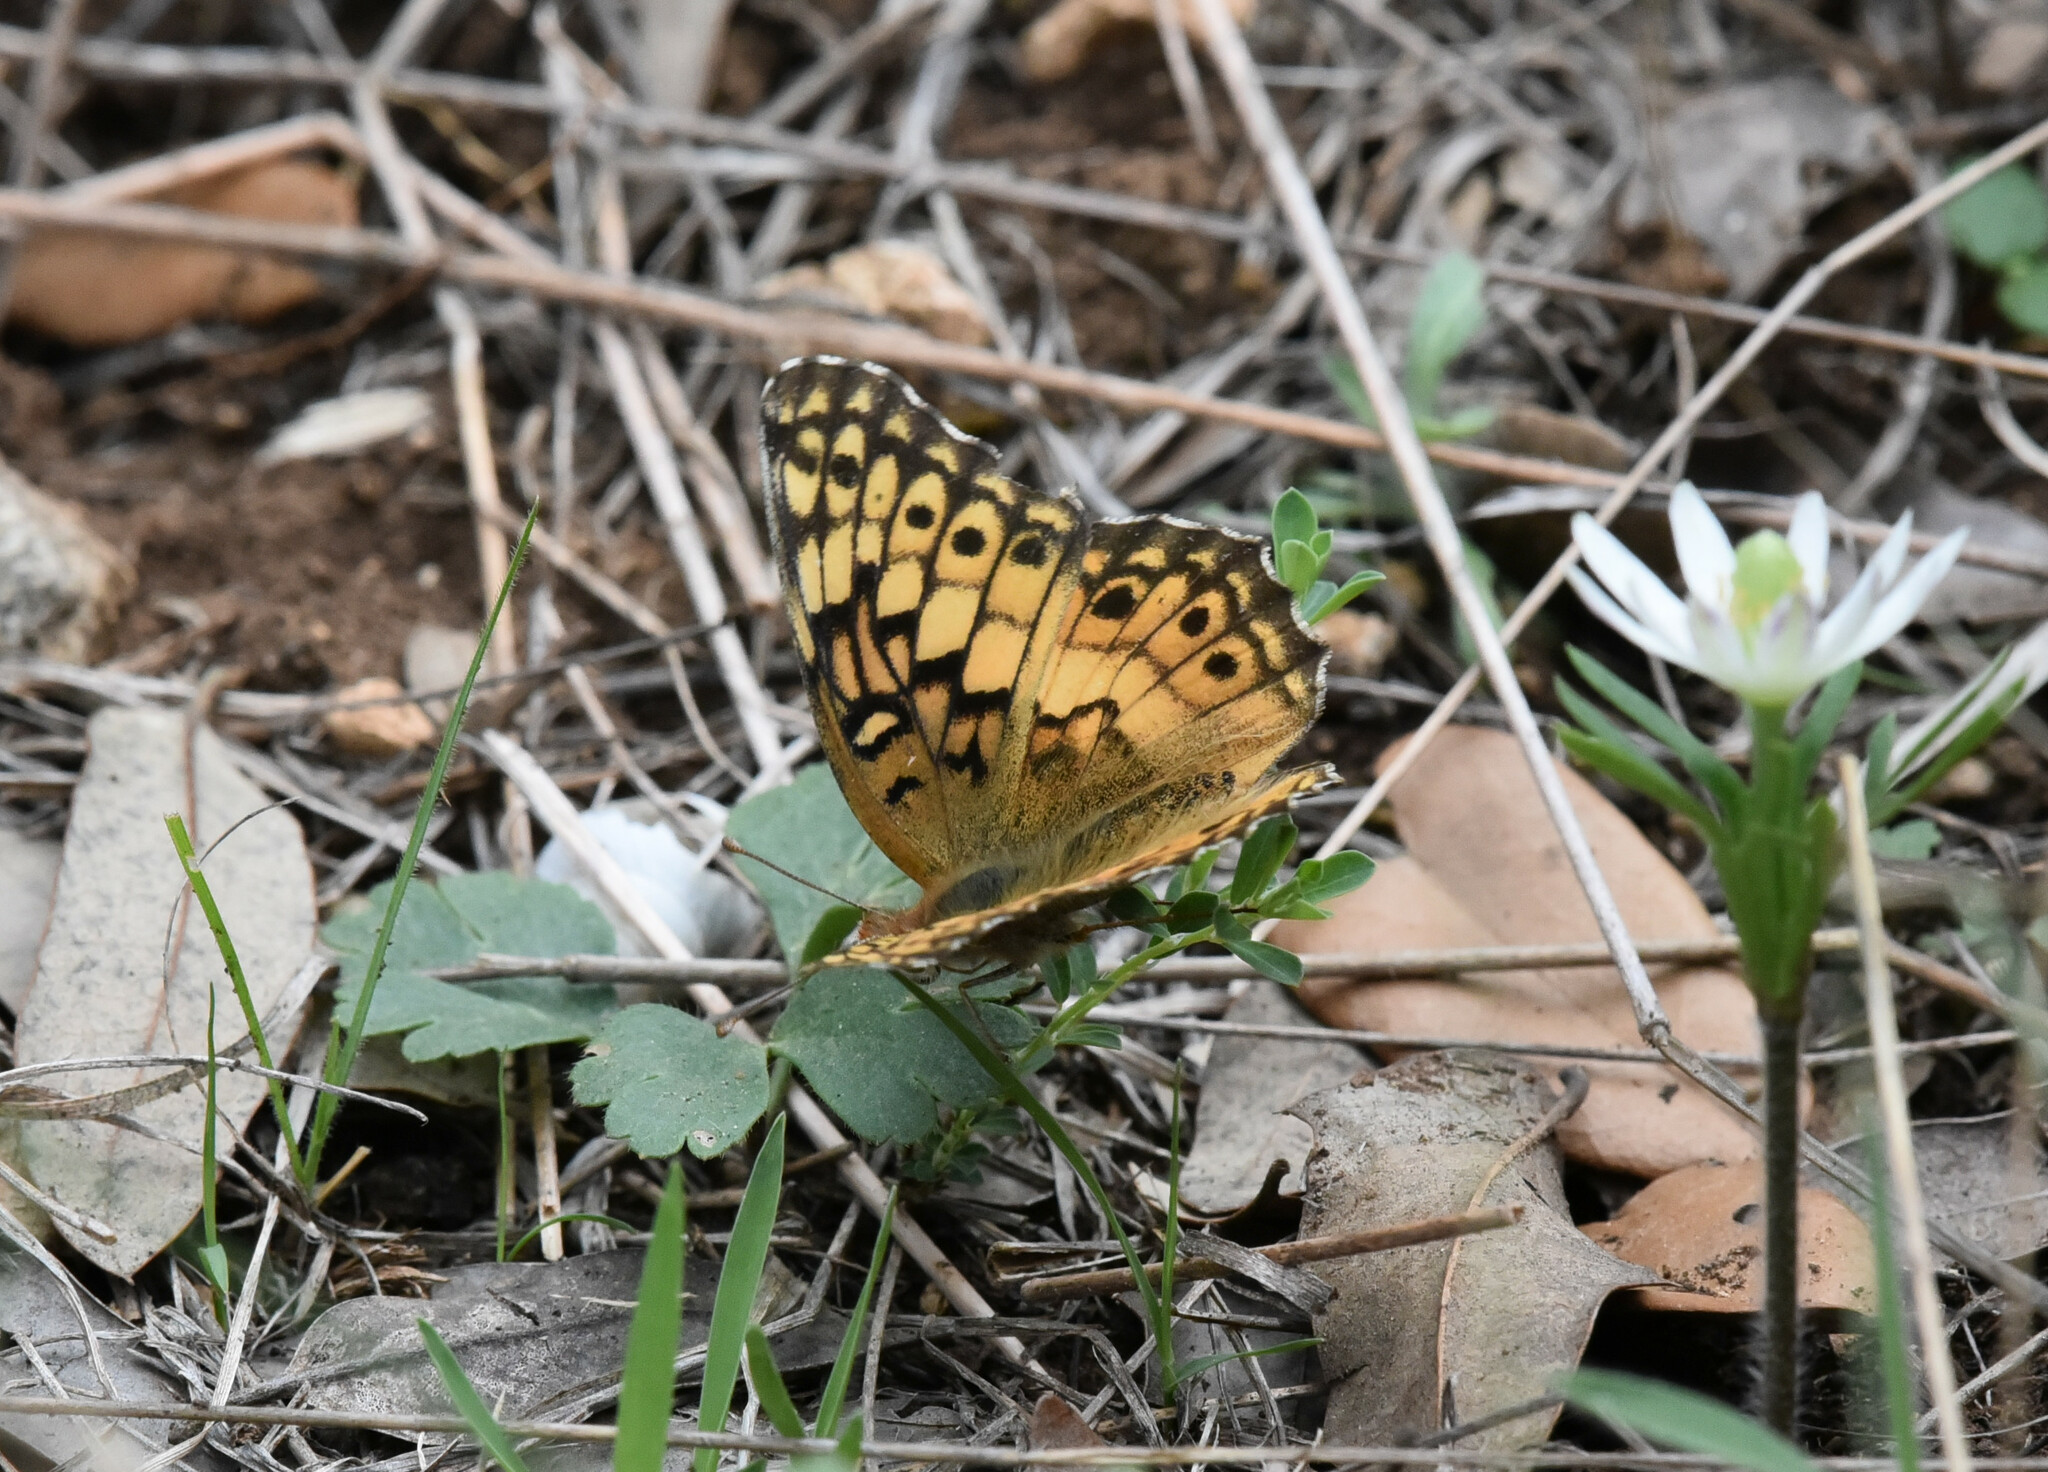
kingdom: Animalia
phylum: Arthropoda
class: Insecta
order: Lepidoptera
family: Nymphalidae
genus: Euptoieta
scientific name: Euptoieta claudia
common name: Variegated fritillary
